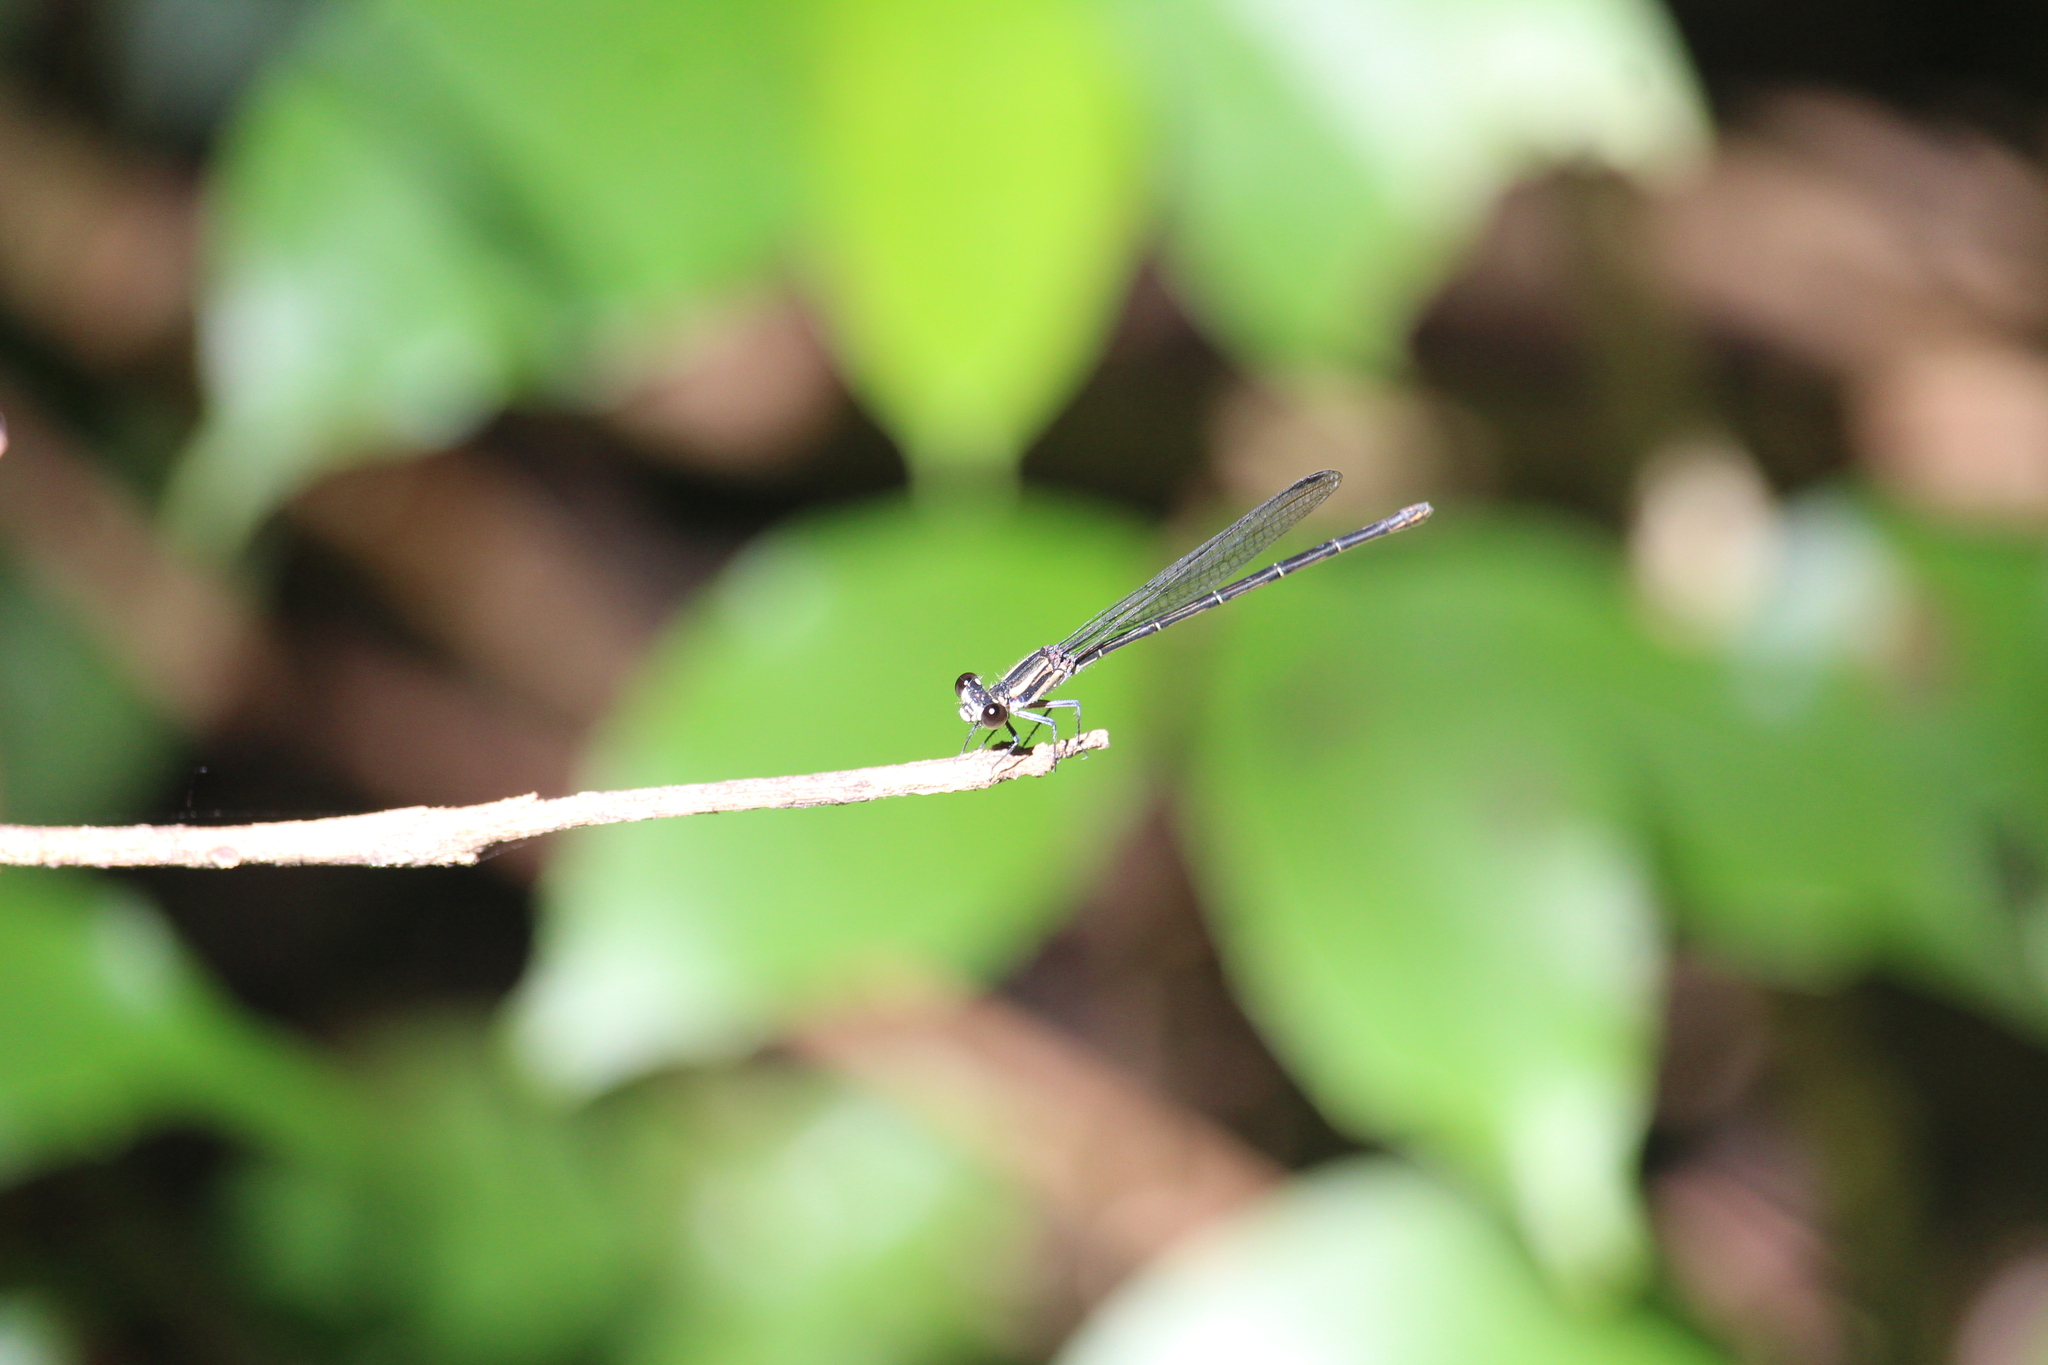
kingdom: Animalia
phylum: Arthropoda
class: Insecta
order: Odonata
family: Coenagrionidae
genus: Argia
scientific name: Argia translata
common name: Dusky dancer
